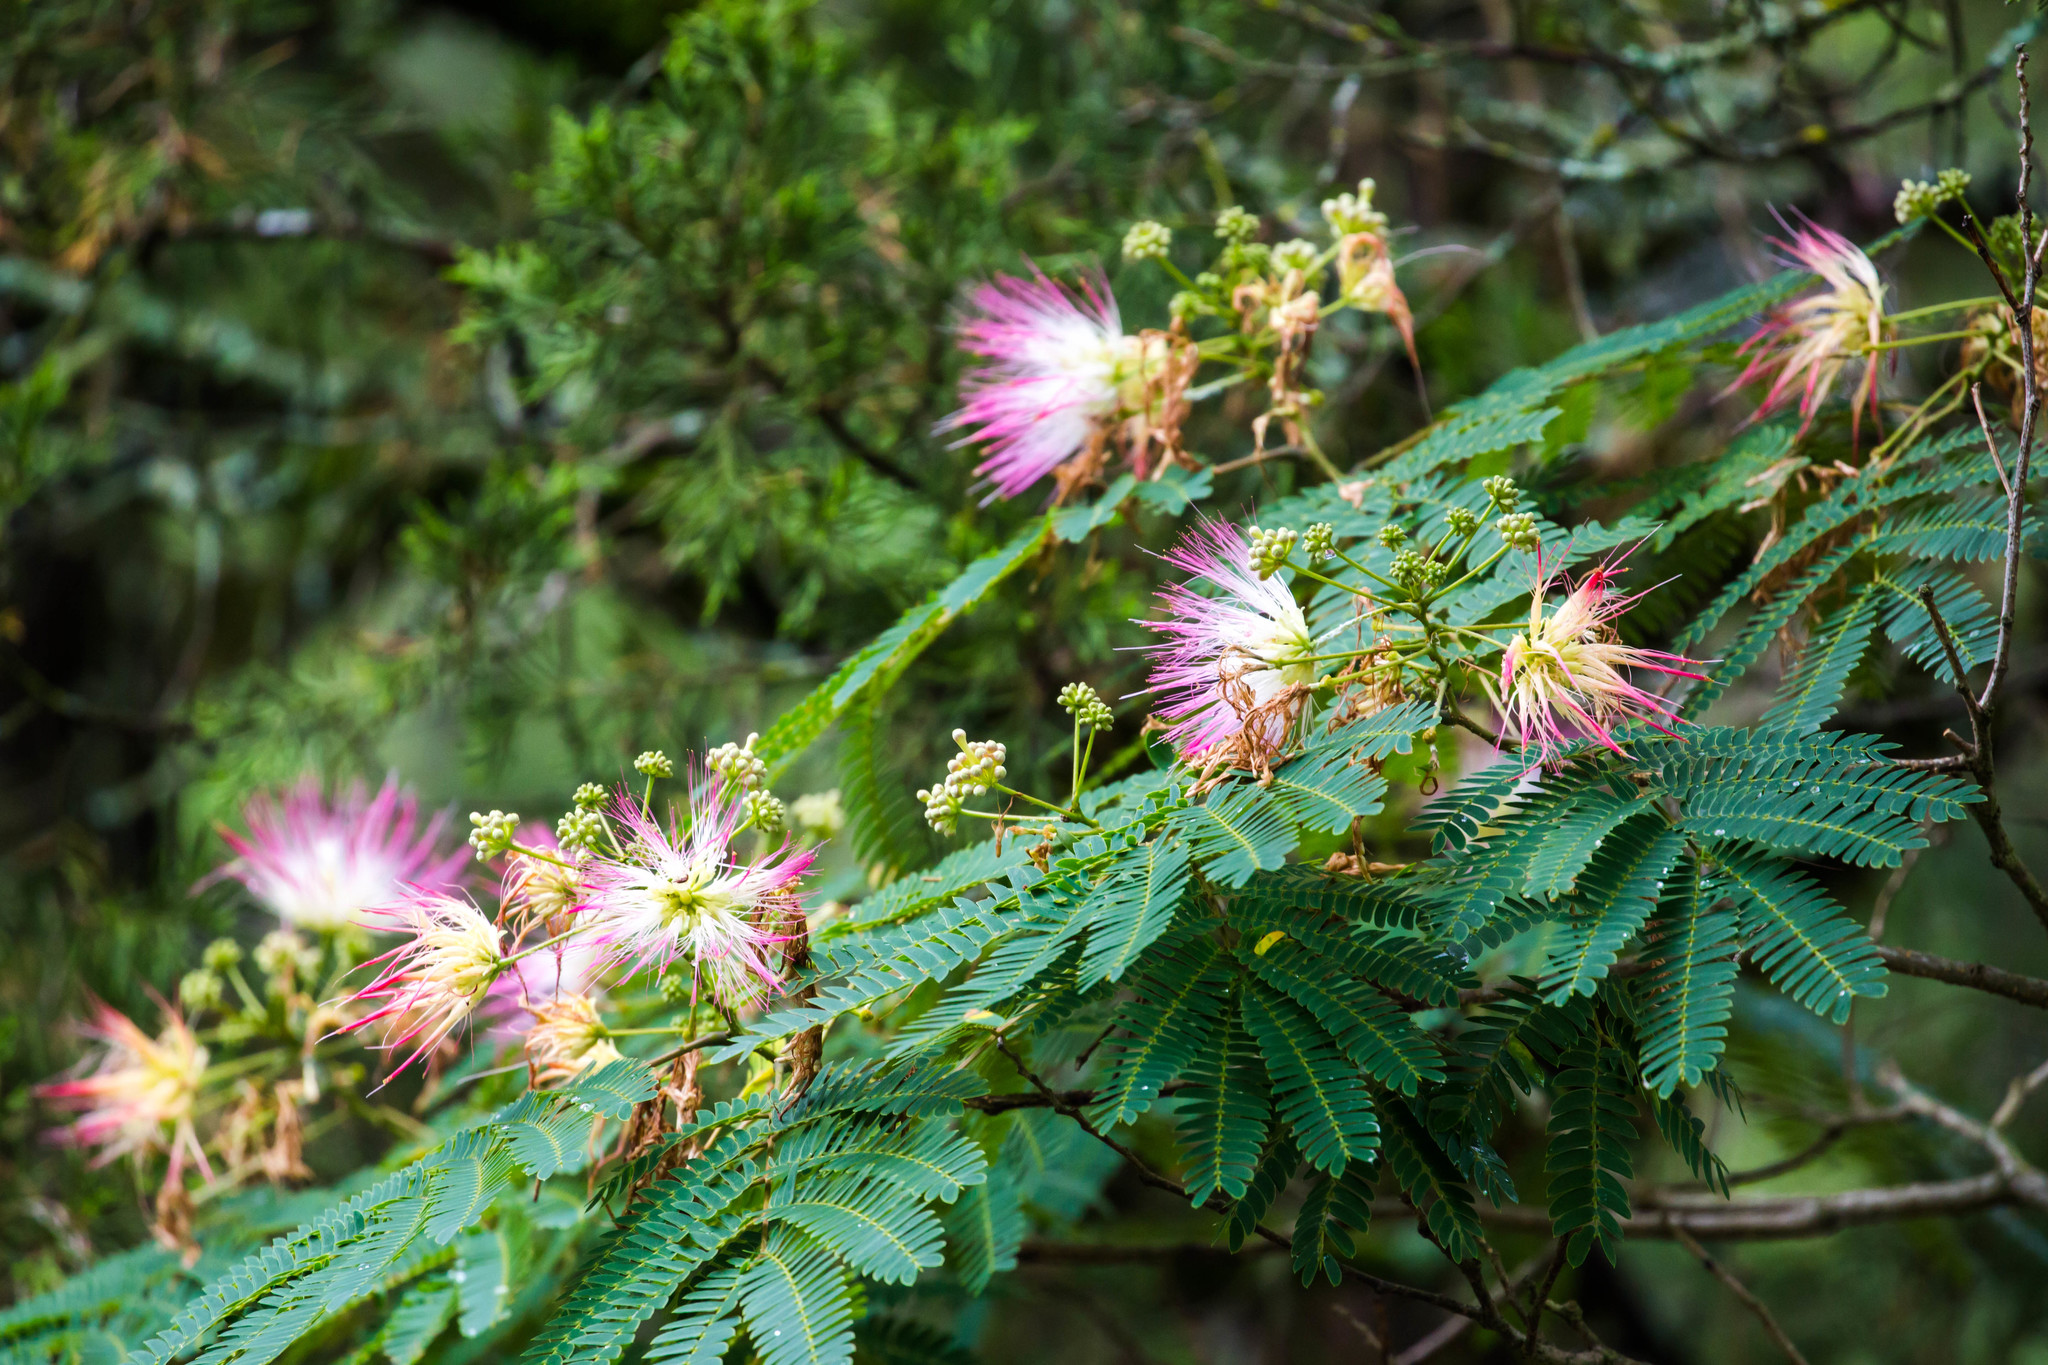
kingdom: Plantae
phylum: Tracheophyta
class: Magnoliopsida
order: Fabales
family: Fabaceae
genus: Albizia
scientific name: Albizia julibrissin
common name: Silktree
